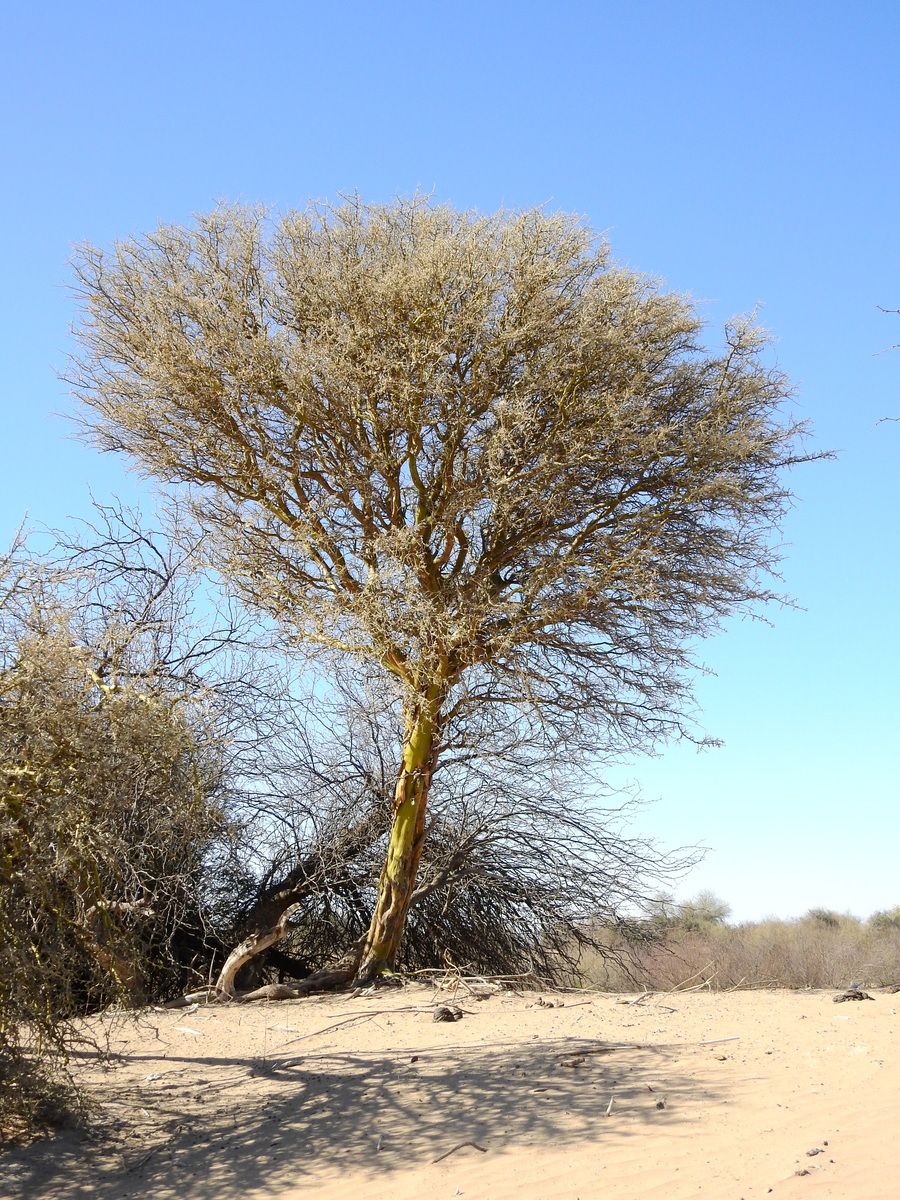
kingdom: Plantae
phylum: Tracheophyta
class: Magnoliopsida
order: Fabales
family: Fabaceae
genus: Geoffroea
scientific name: Geoffroea decorticans
